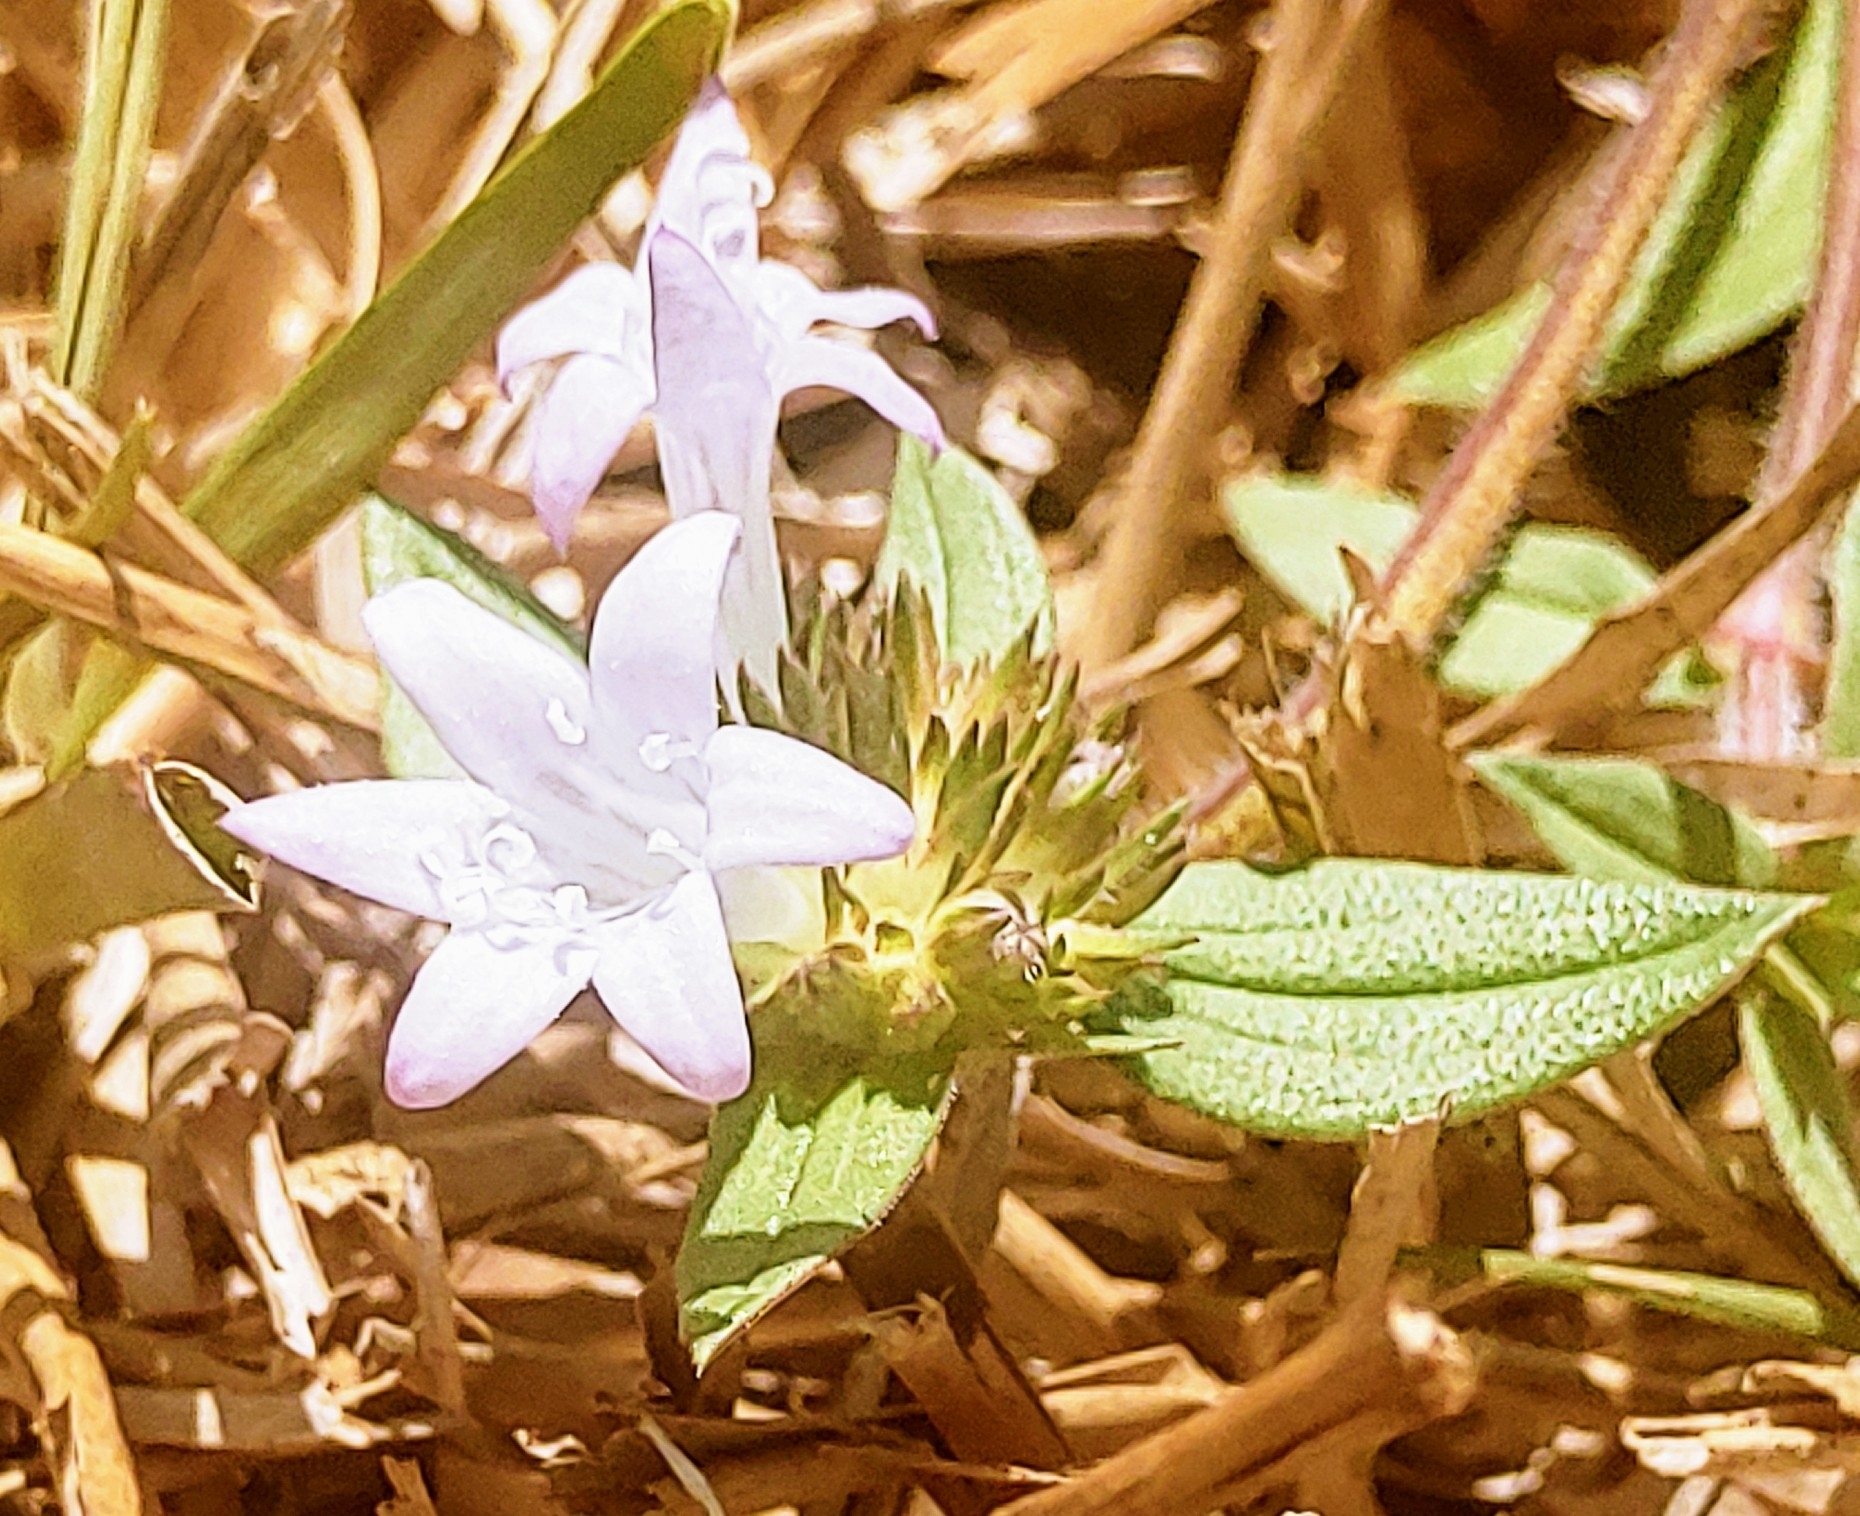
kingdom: Plantae
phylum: Tracheophyta
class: Magnoliopsida
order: Gentianales
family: Rubiaceae
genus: Richardia
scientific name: Richardia grandiflora
